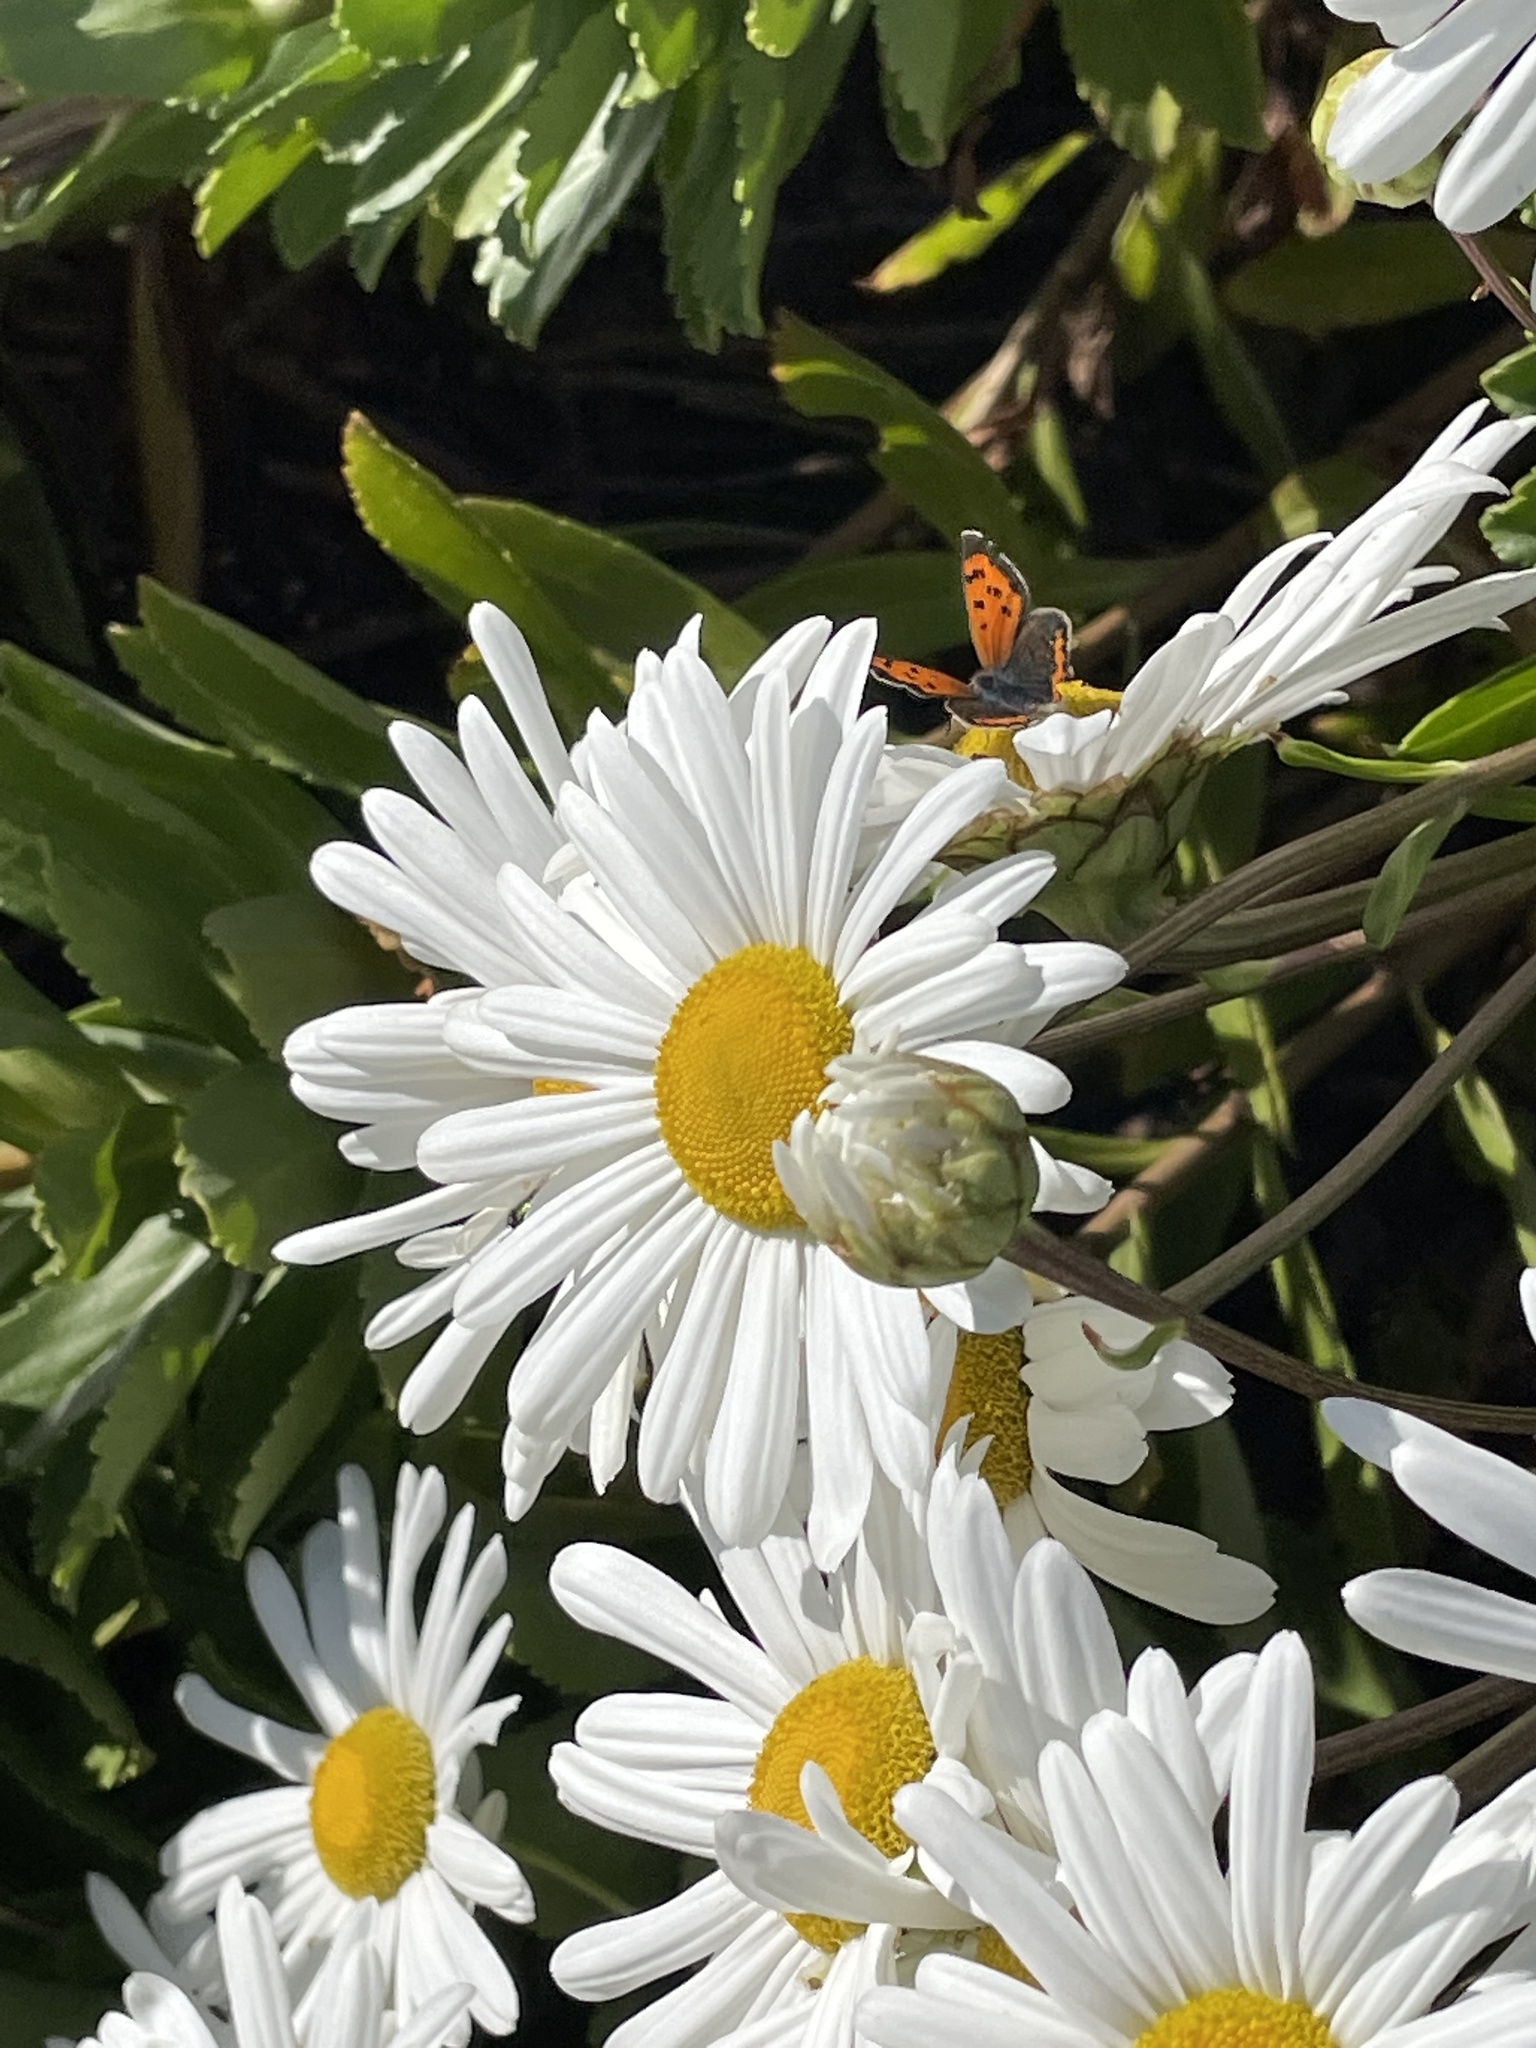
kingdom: Animalia
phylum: Arthropoda
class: Insecta
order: Lepidoptera
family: Lycaenidae
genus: Lycaena
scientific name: Lycaena hypophlaeas
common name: American copper
